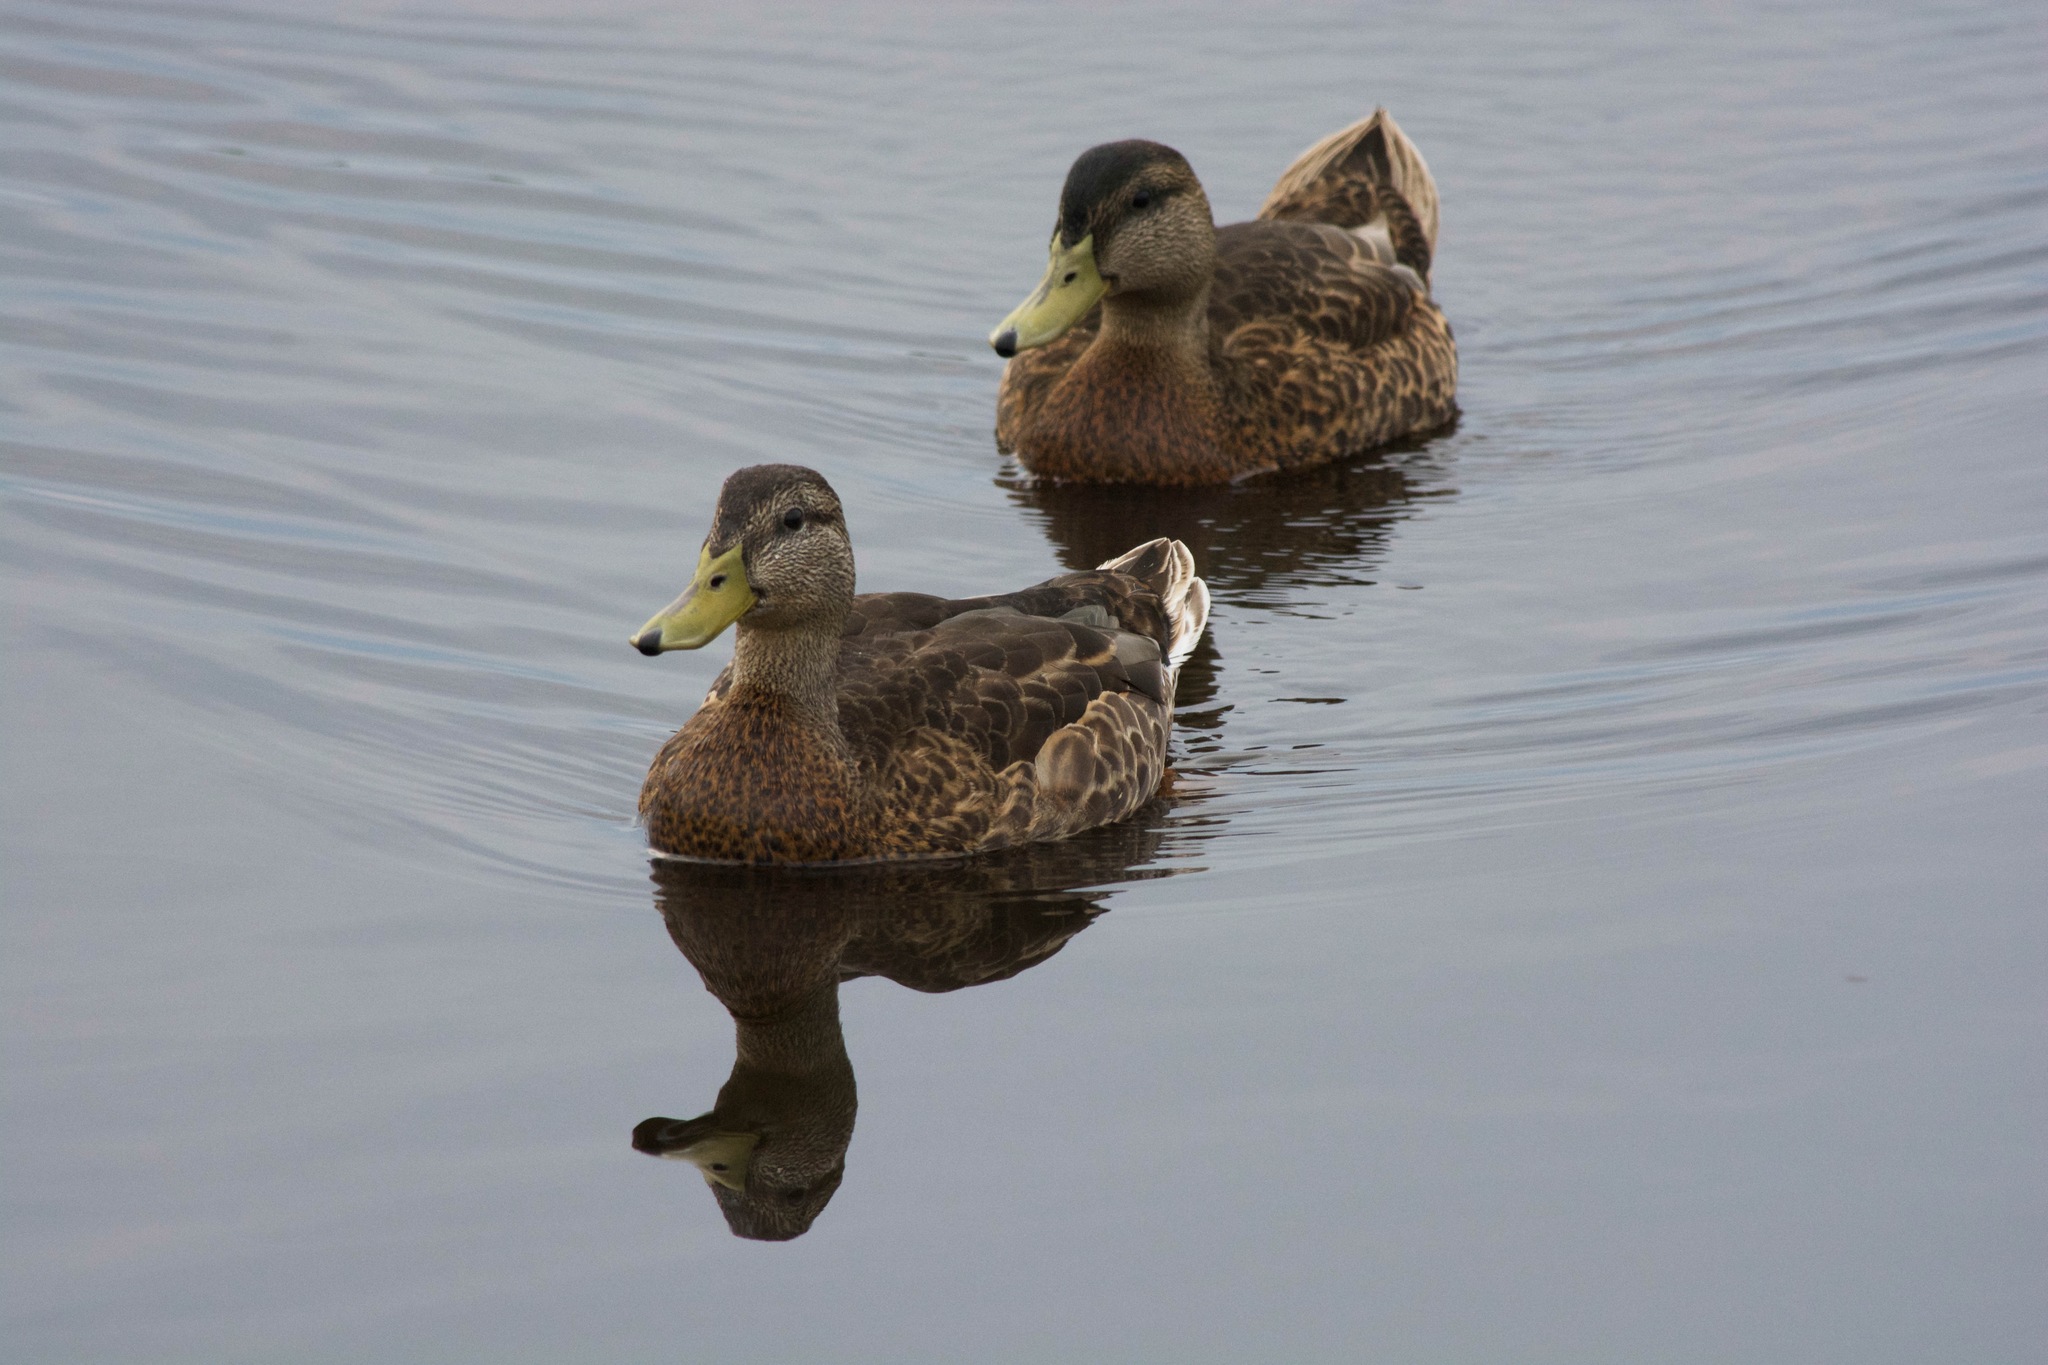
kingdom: Animalia
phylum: Chordata
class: Aves
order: Anseriformes
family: Anatidae
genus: Anas
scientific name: Anas platyrhynchos
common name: Mallard
